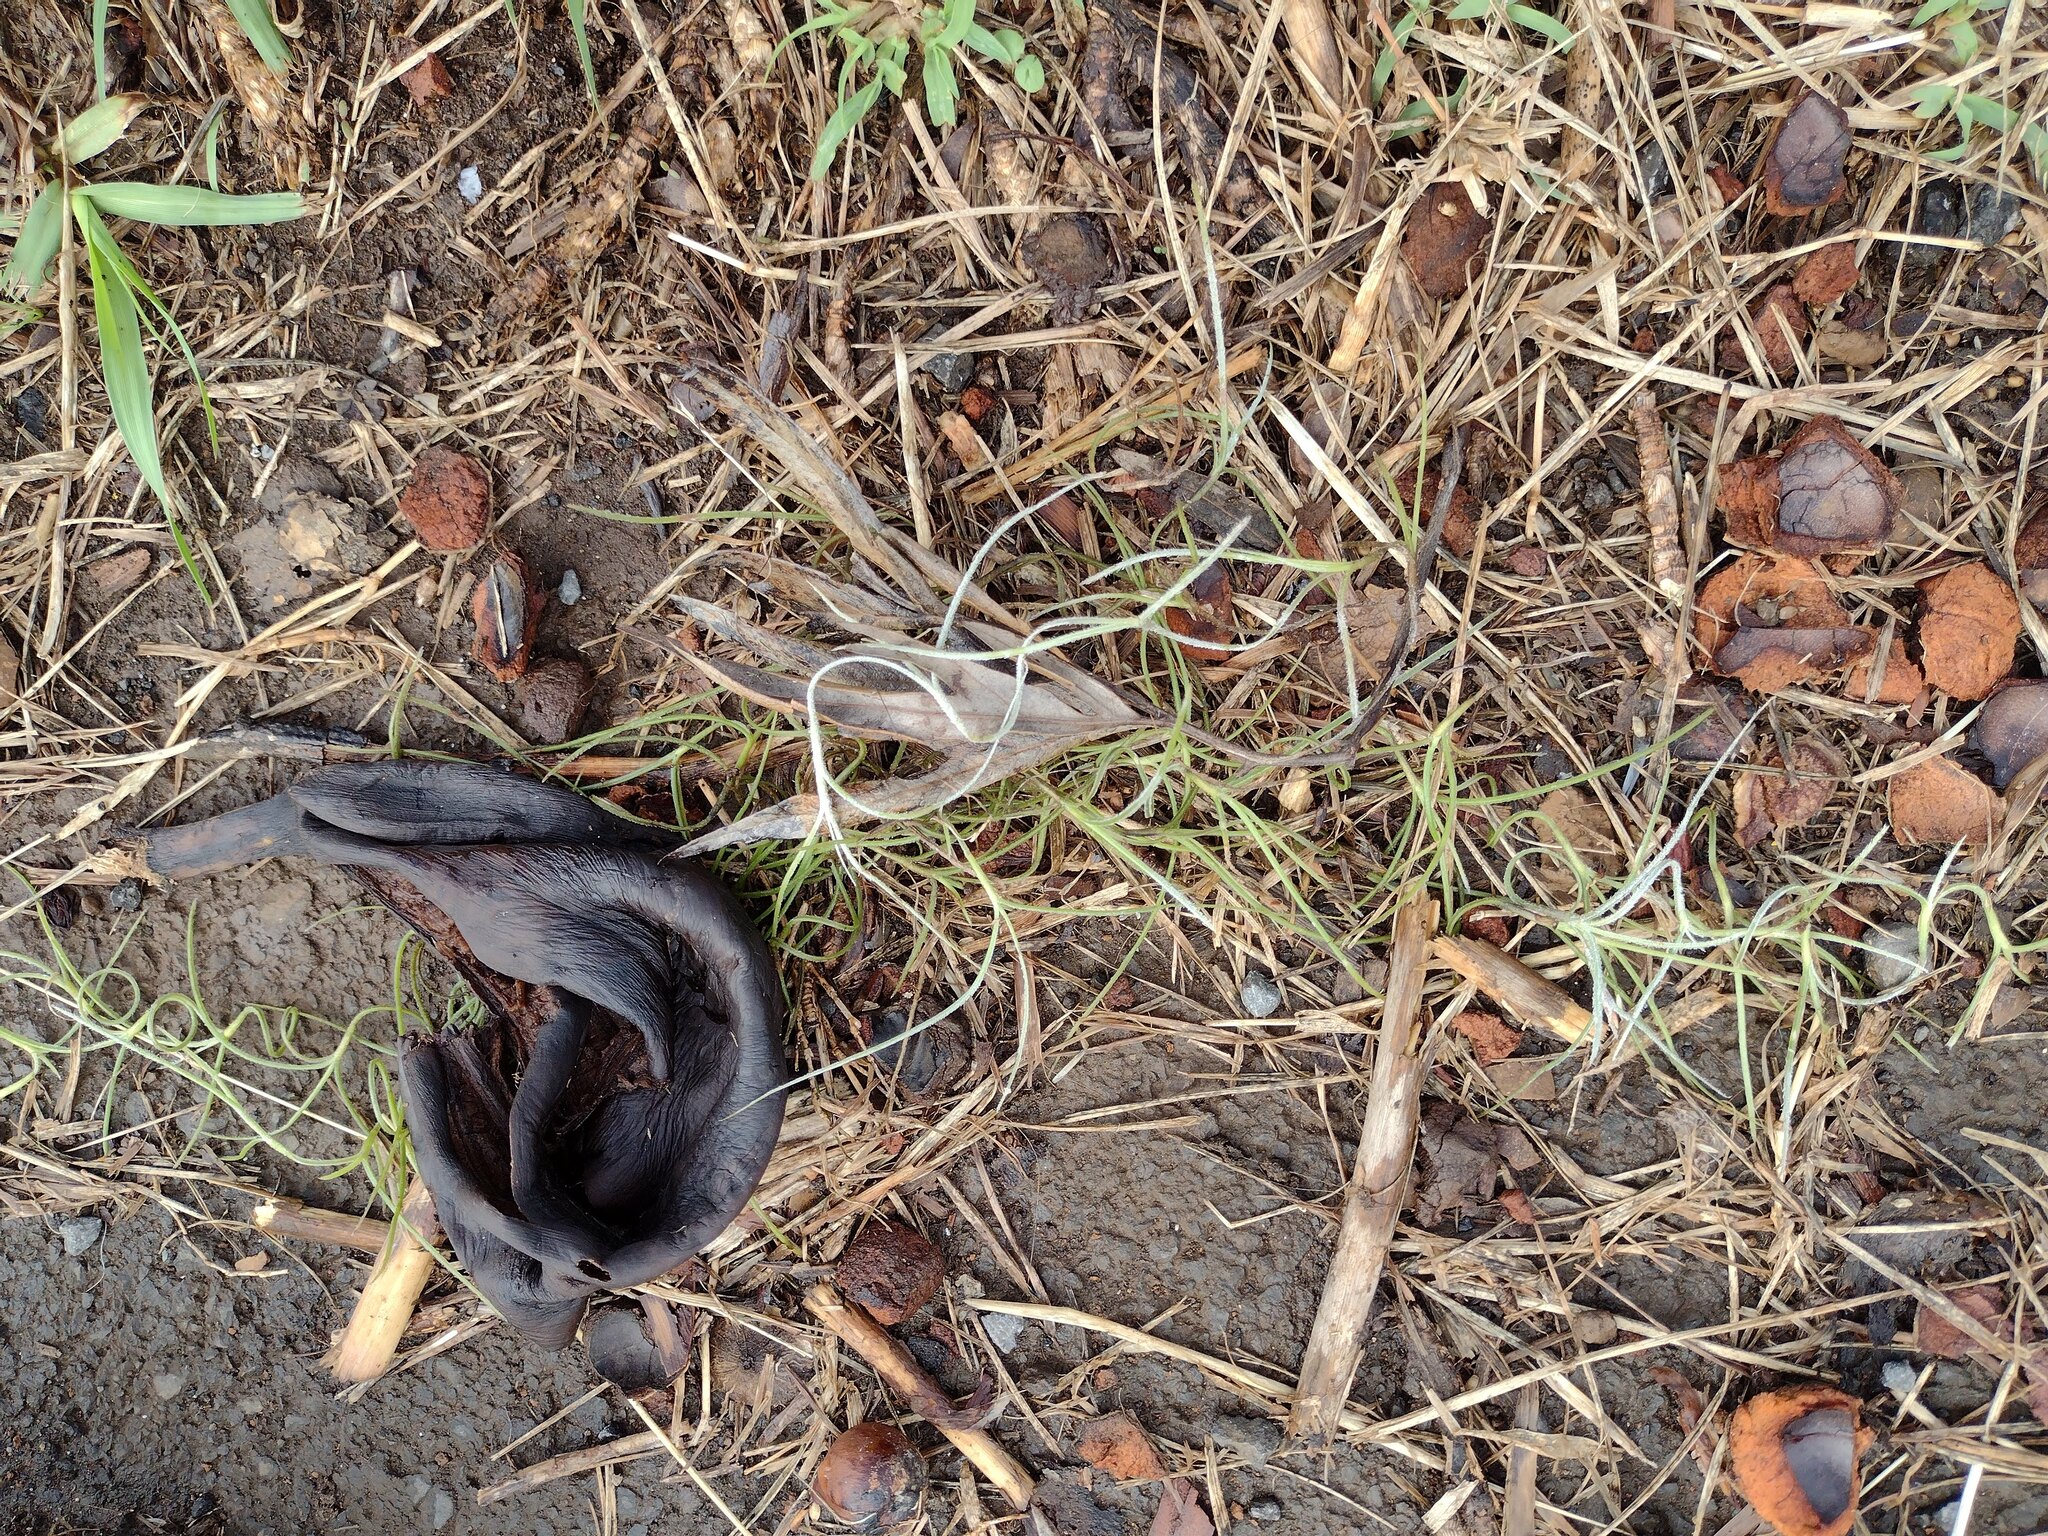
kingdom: Plantae
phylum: Tracheophyta
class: Liliopsida
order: Poales
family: Bromeliaceae
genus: Tillandsia
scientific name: Tillandsia usneoides
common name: Spanish moss
